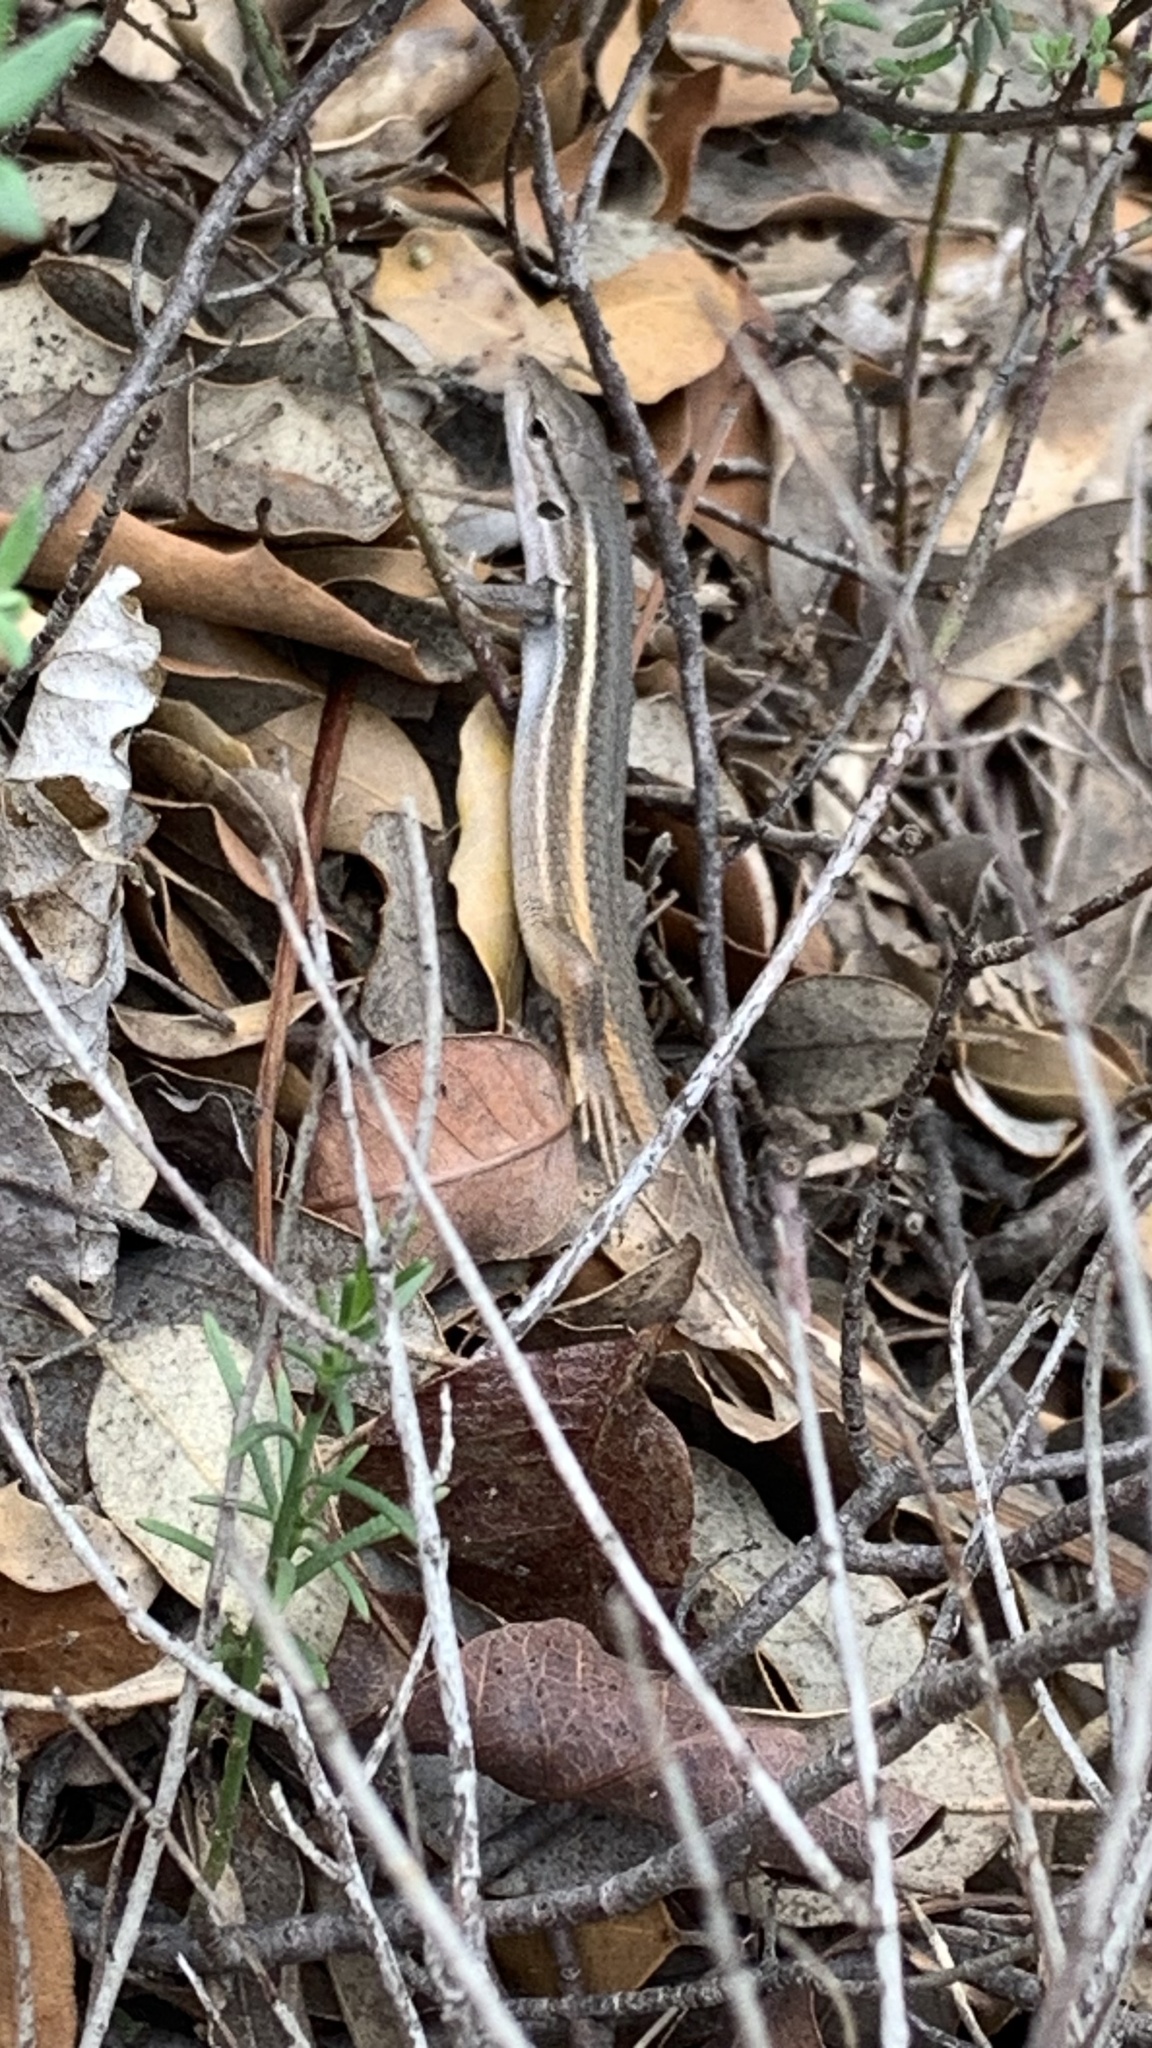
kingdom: Animalia
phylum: Chordata
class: Squamata
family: Lacertidae
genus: Psammodromus
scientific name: Psammodromus algirus
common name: Algerian psammodromus
